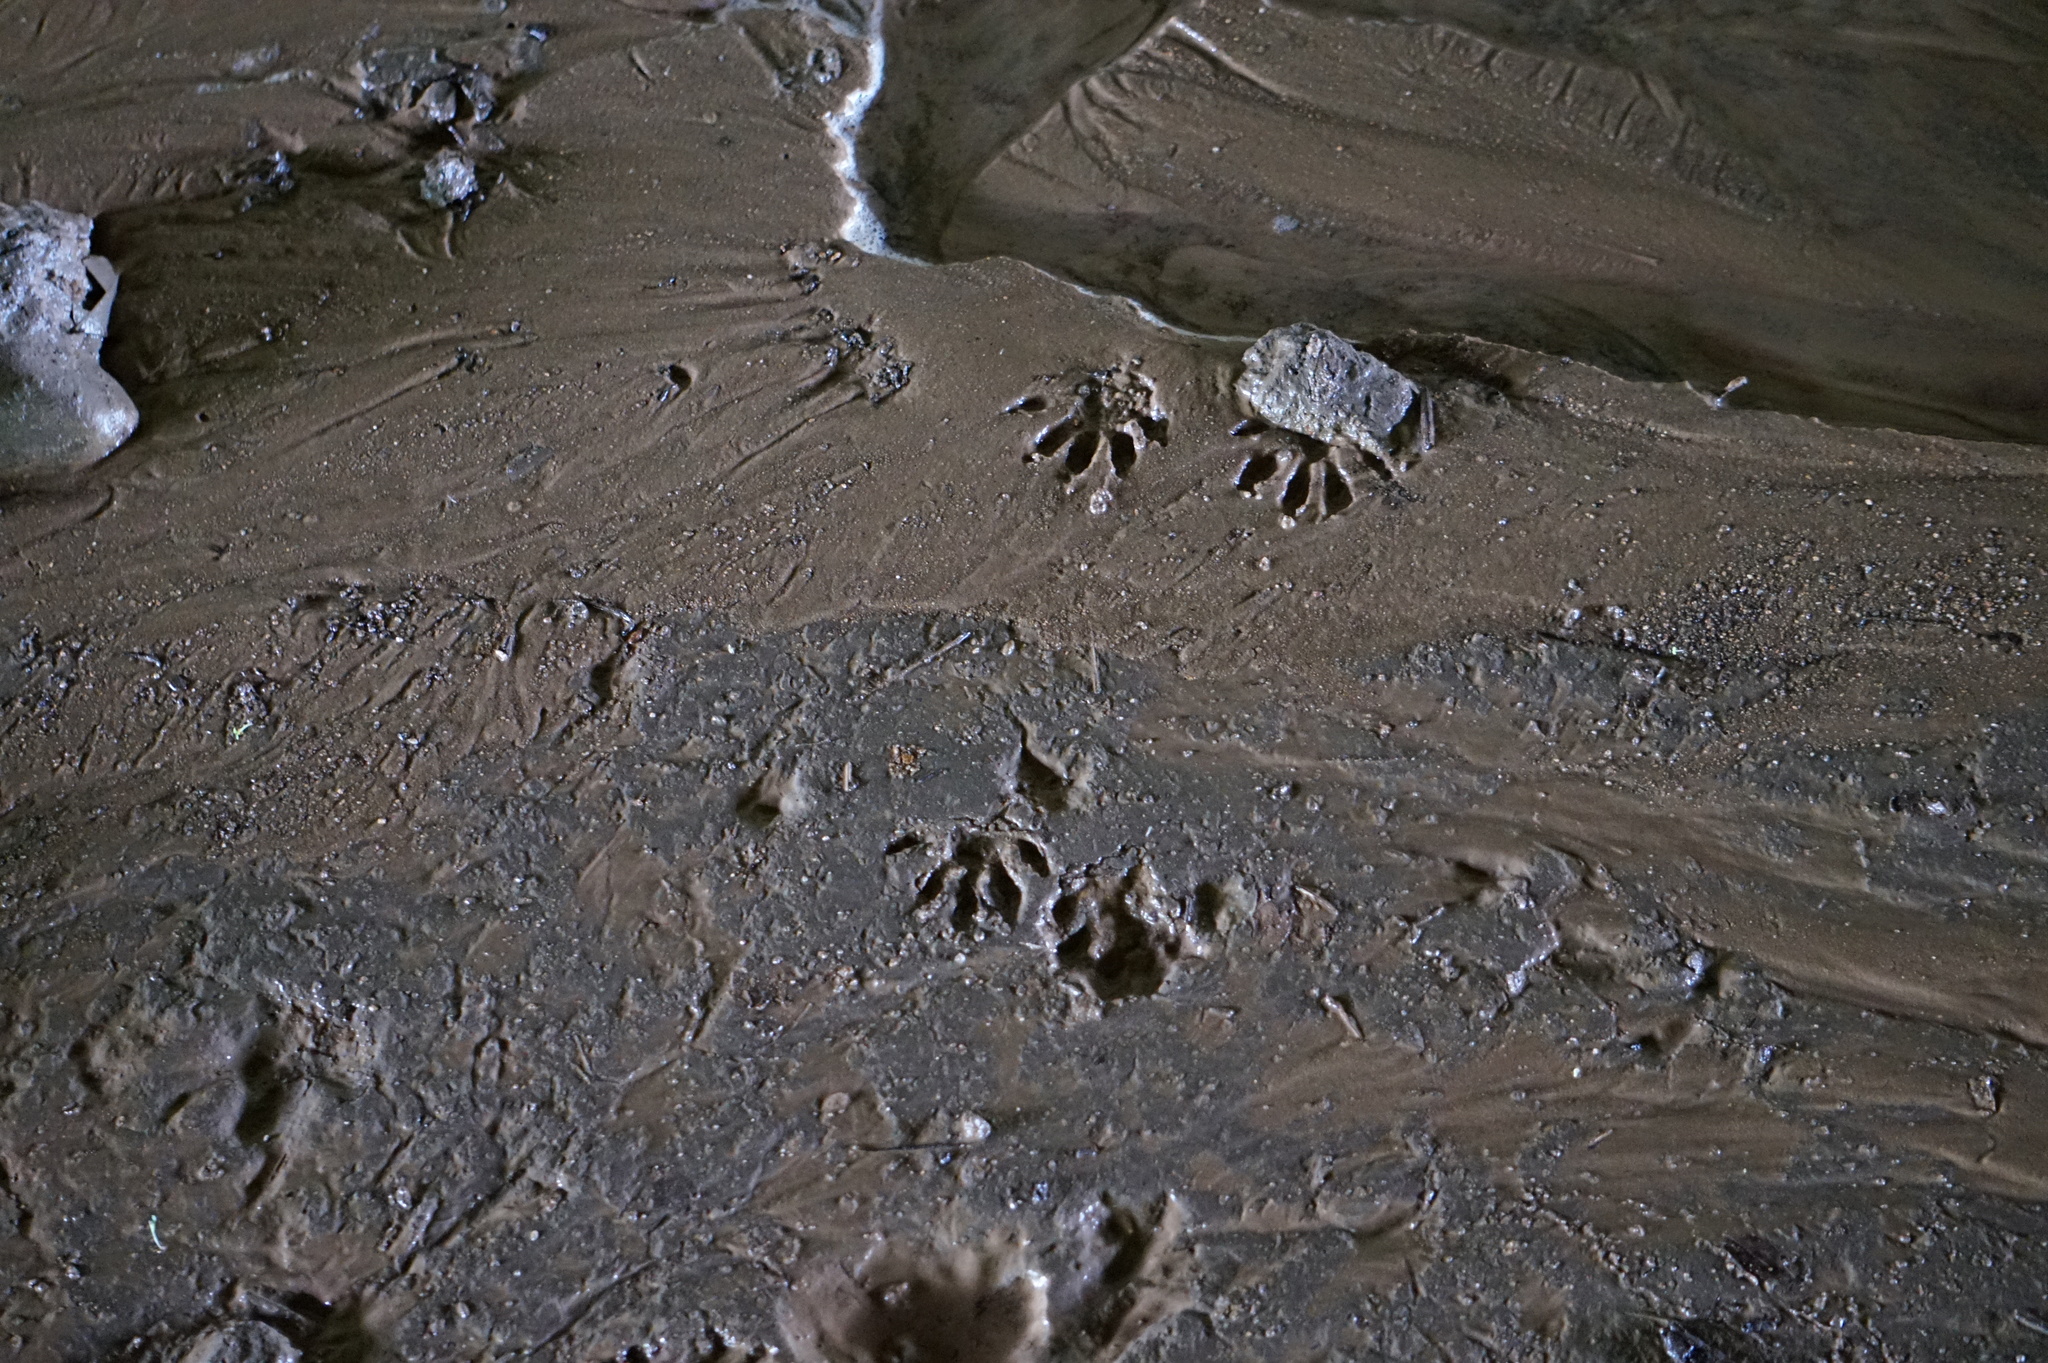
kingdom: Animalia
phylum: Chordata
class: Mammalia
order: Carnivora
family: Procyonidae
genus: Procyon
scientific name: Procyon lotor
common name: Raccoon
